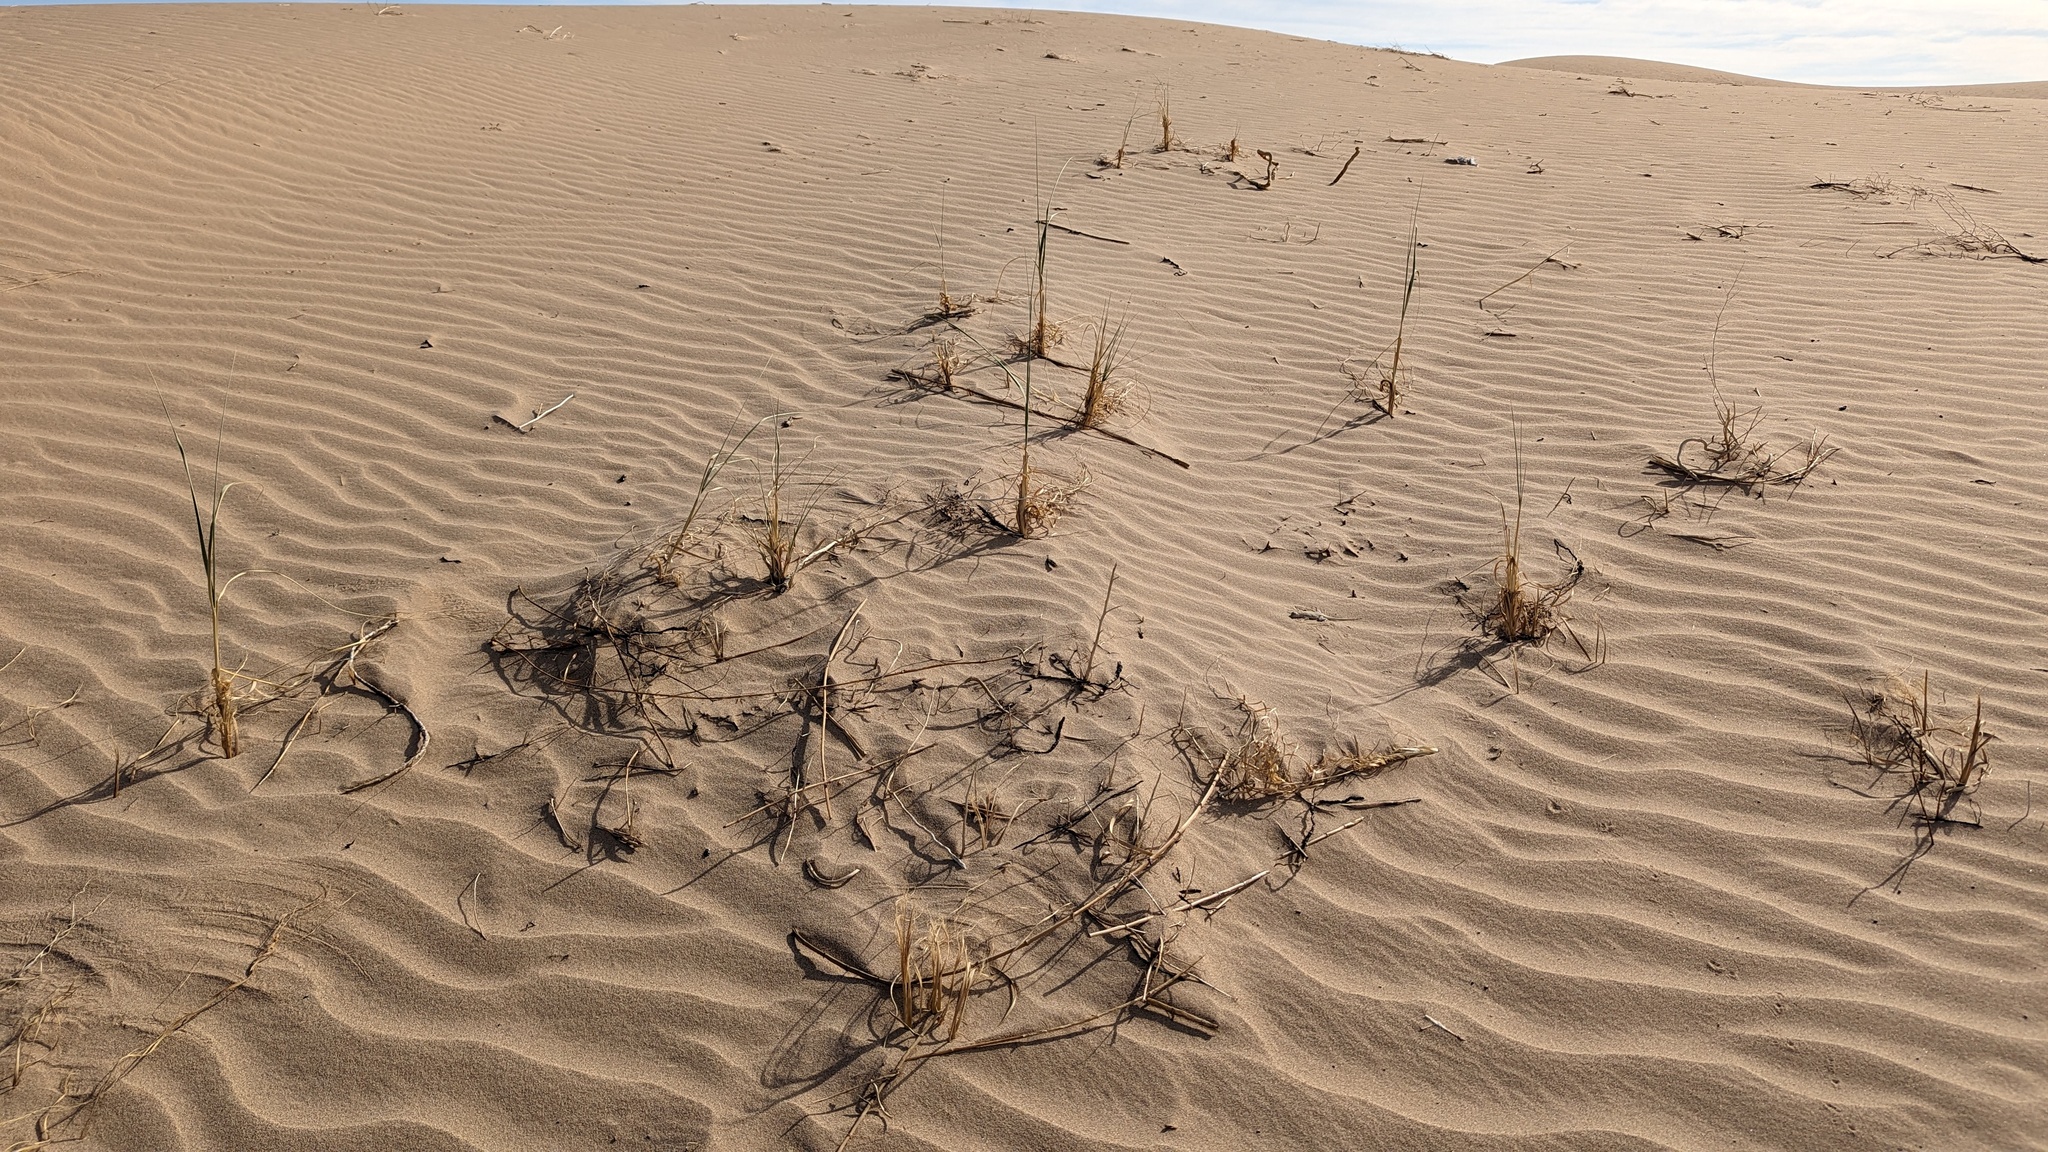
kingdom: Plantae
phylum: Tracheophyta
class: Liliopsida
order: Poales
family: Poaceae
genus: Panicum
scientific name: Panicum urvilleanum
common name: Silky panic grass
